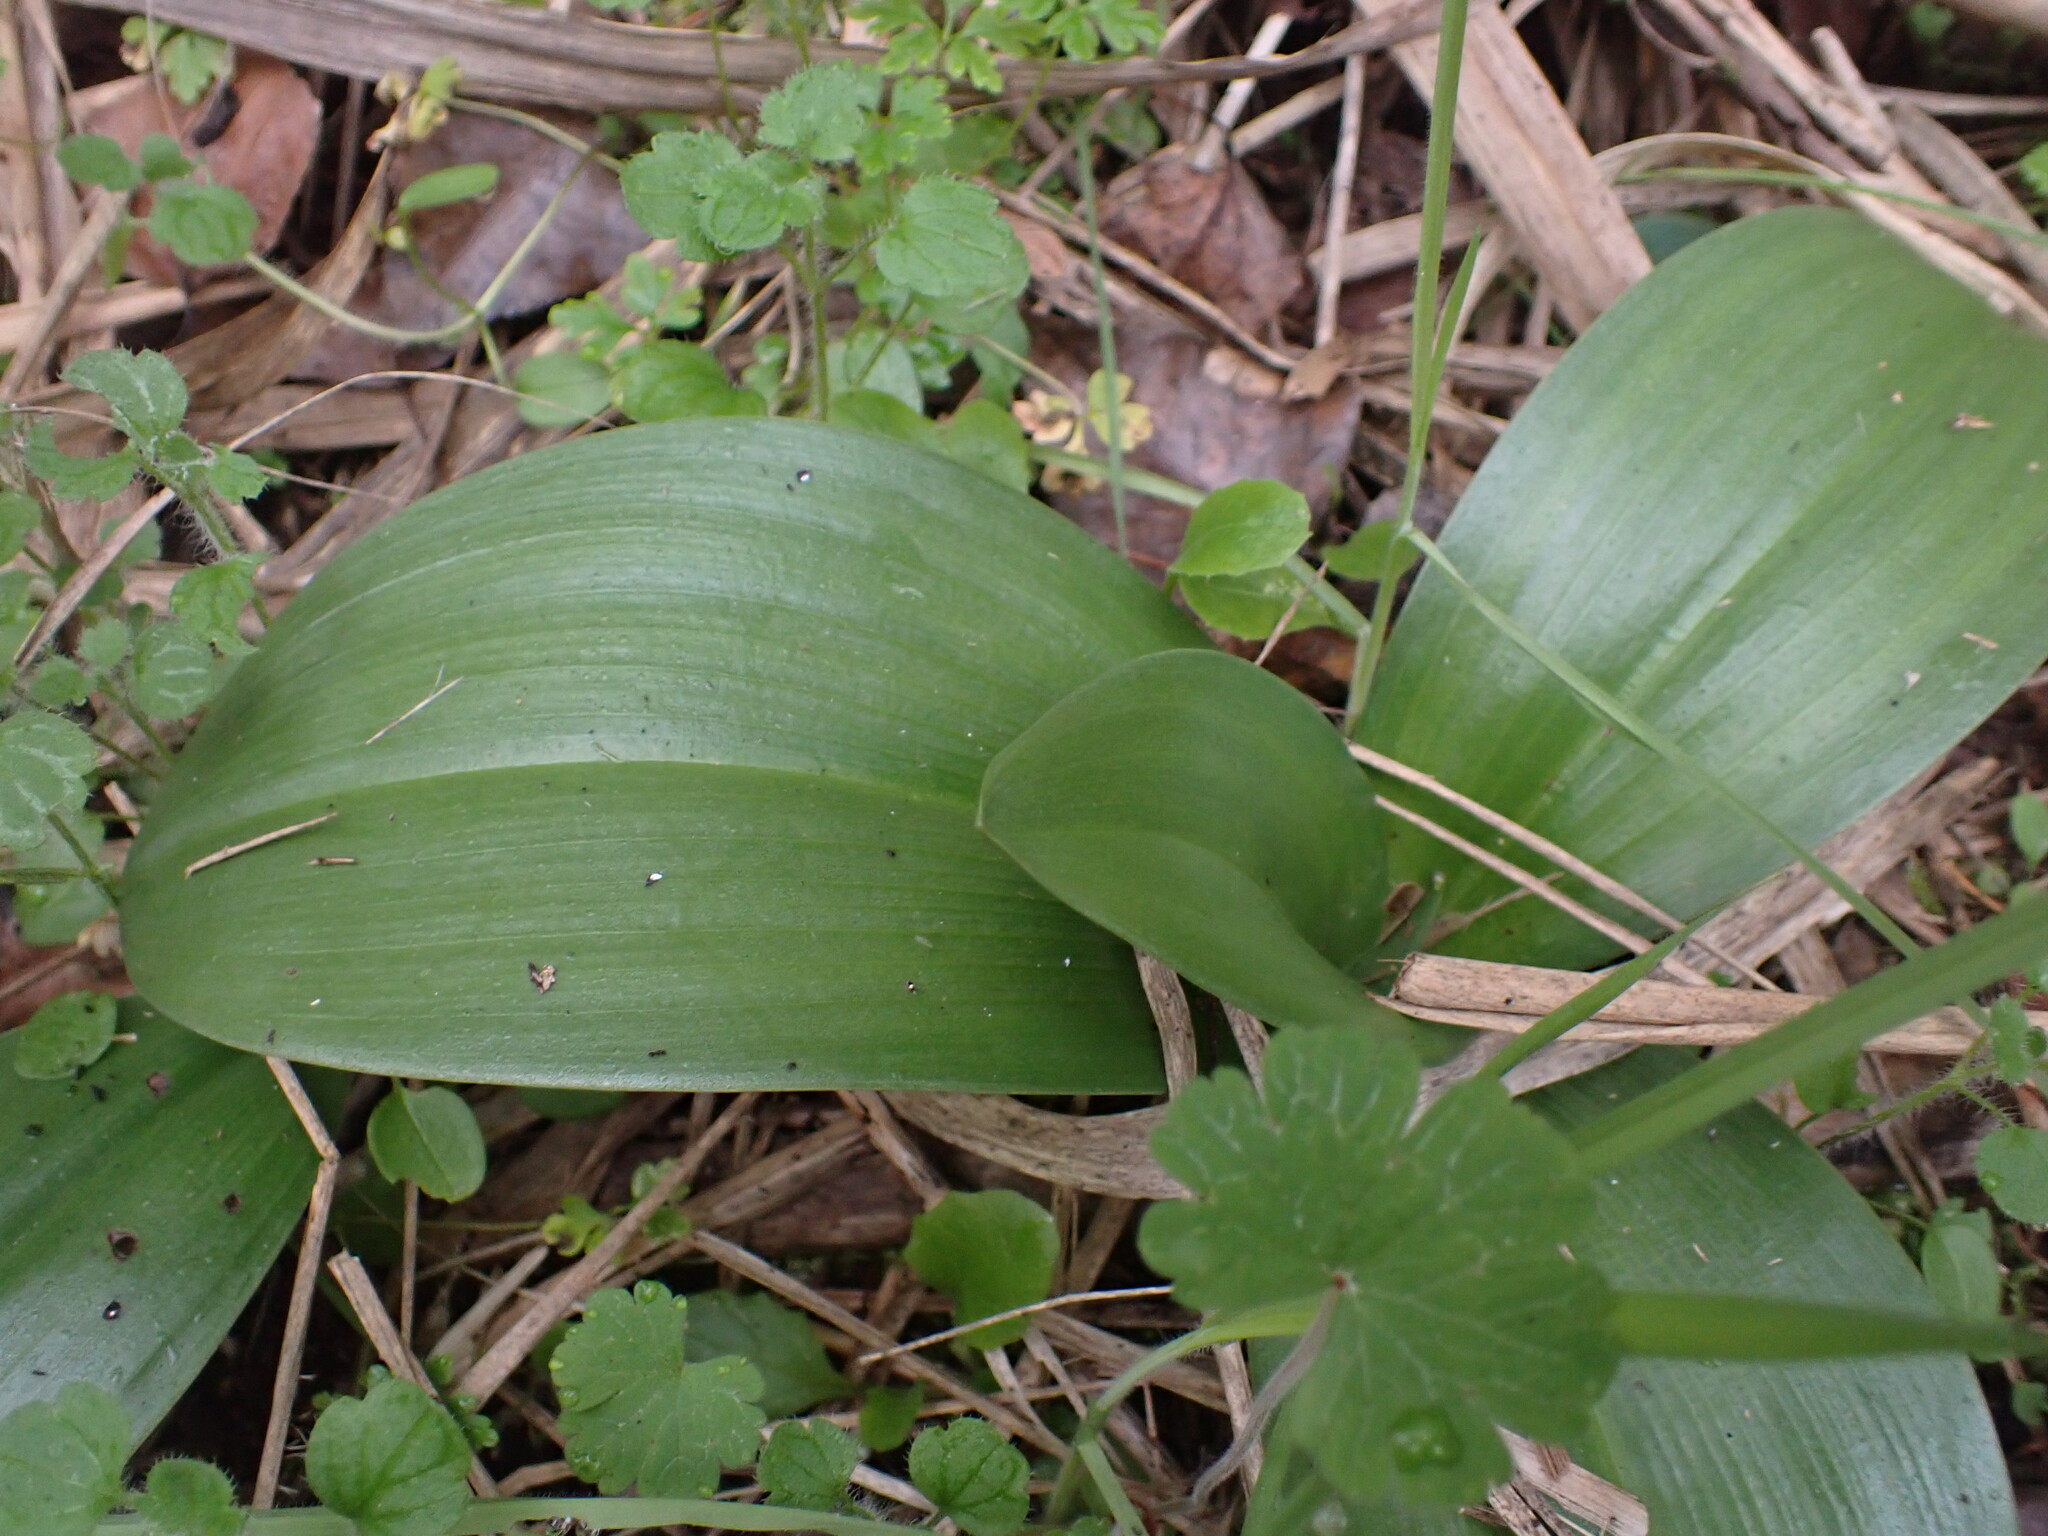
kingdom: Plantae
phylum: Tracheophyta
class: Liliopsida
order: Asparagales
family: Orchidaceae
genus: Himantoglossum
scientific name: Himantoglossum robertianum
